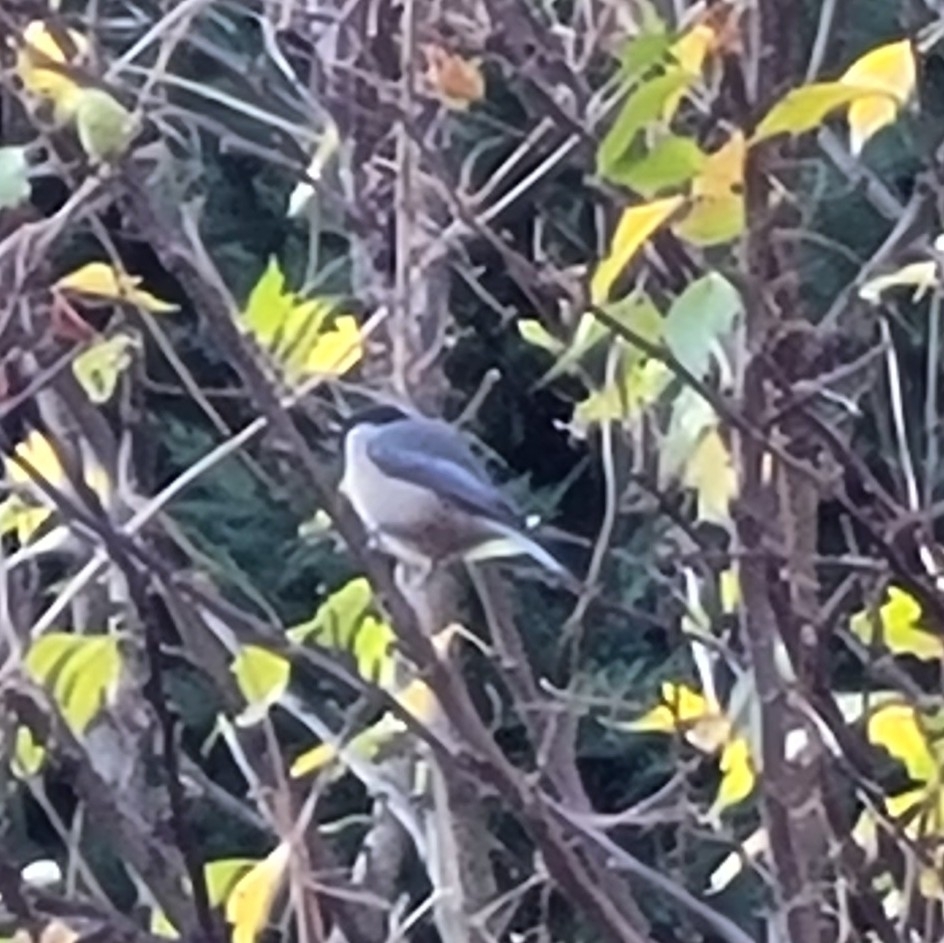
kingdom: Animalia
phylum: Chordata
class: Aves
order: Passeriformes
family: Paridae
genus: Poecile
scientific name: Poecile carolinensis
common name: Carolina chickadee
